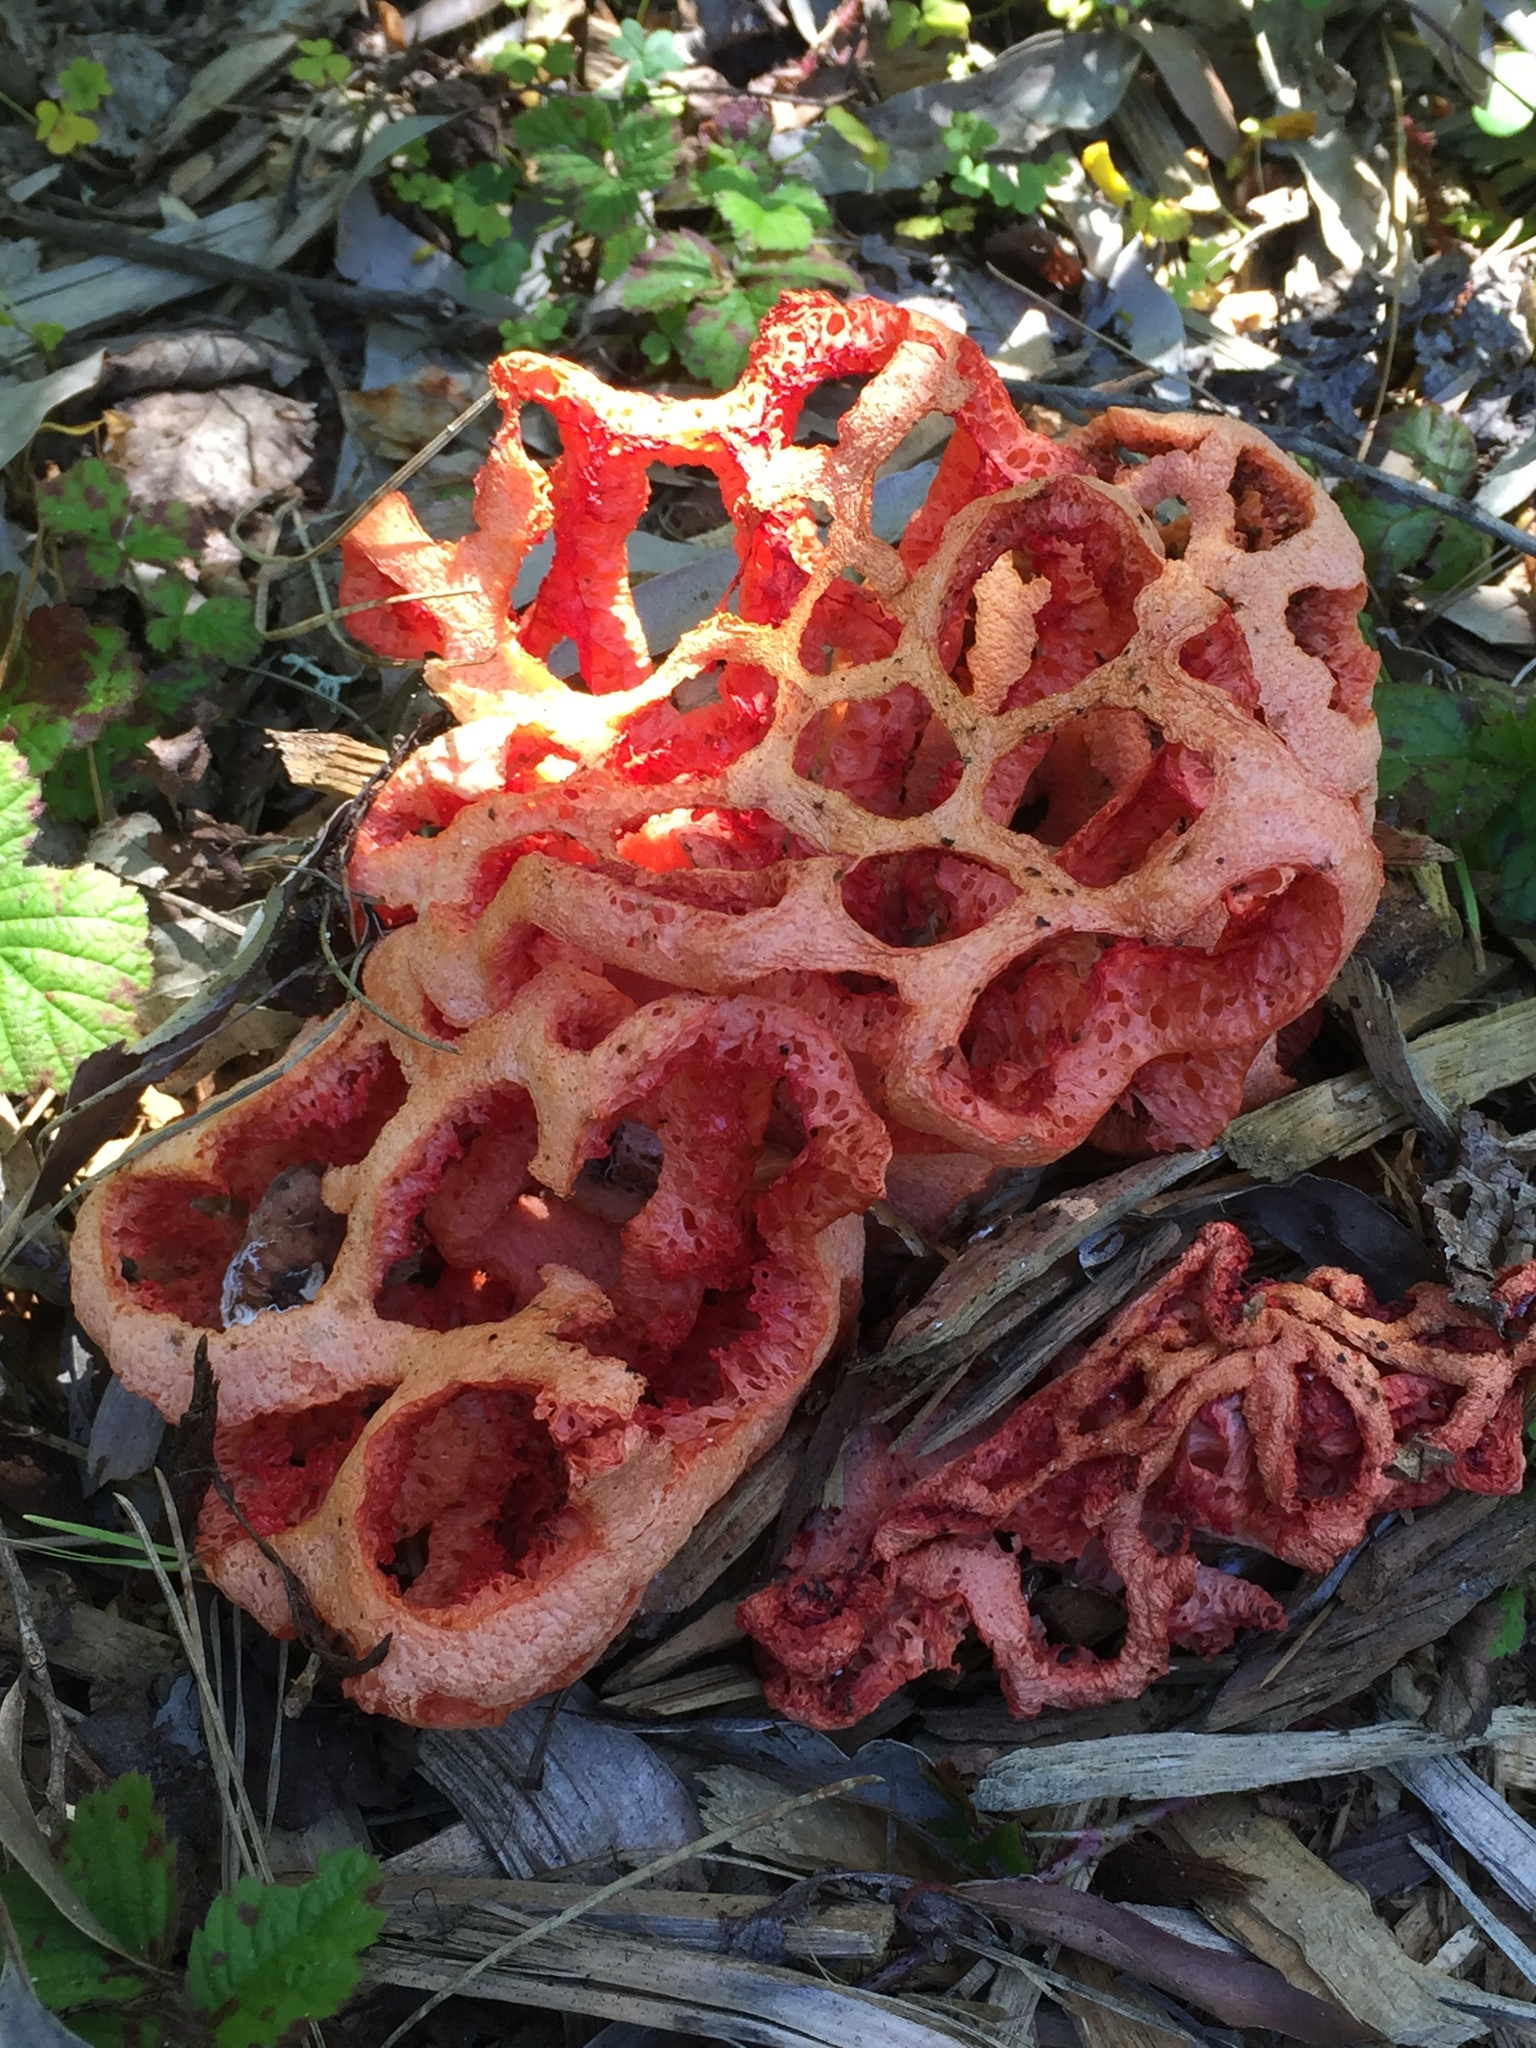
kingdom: Fungi
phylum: Basidiomycota
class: Agaricomycetes
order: Phallales
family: Phallaceae
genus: Clathrus
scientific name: Clathrus ruber
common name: Red cage
